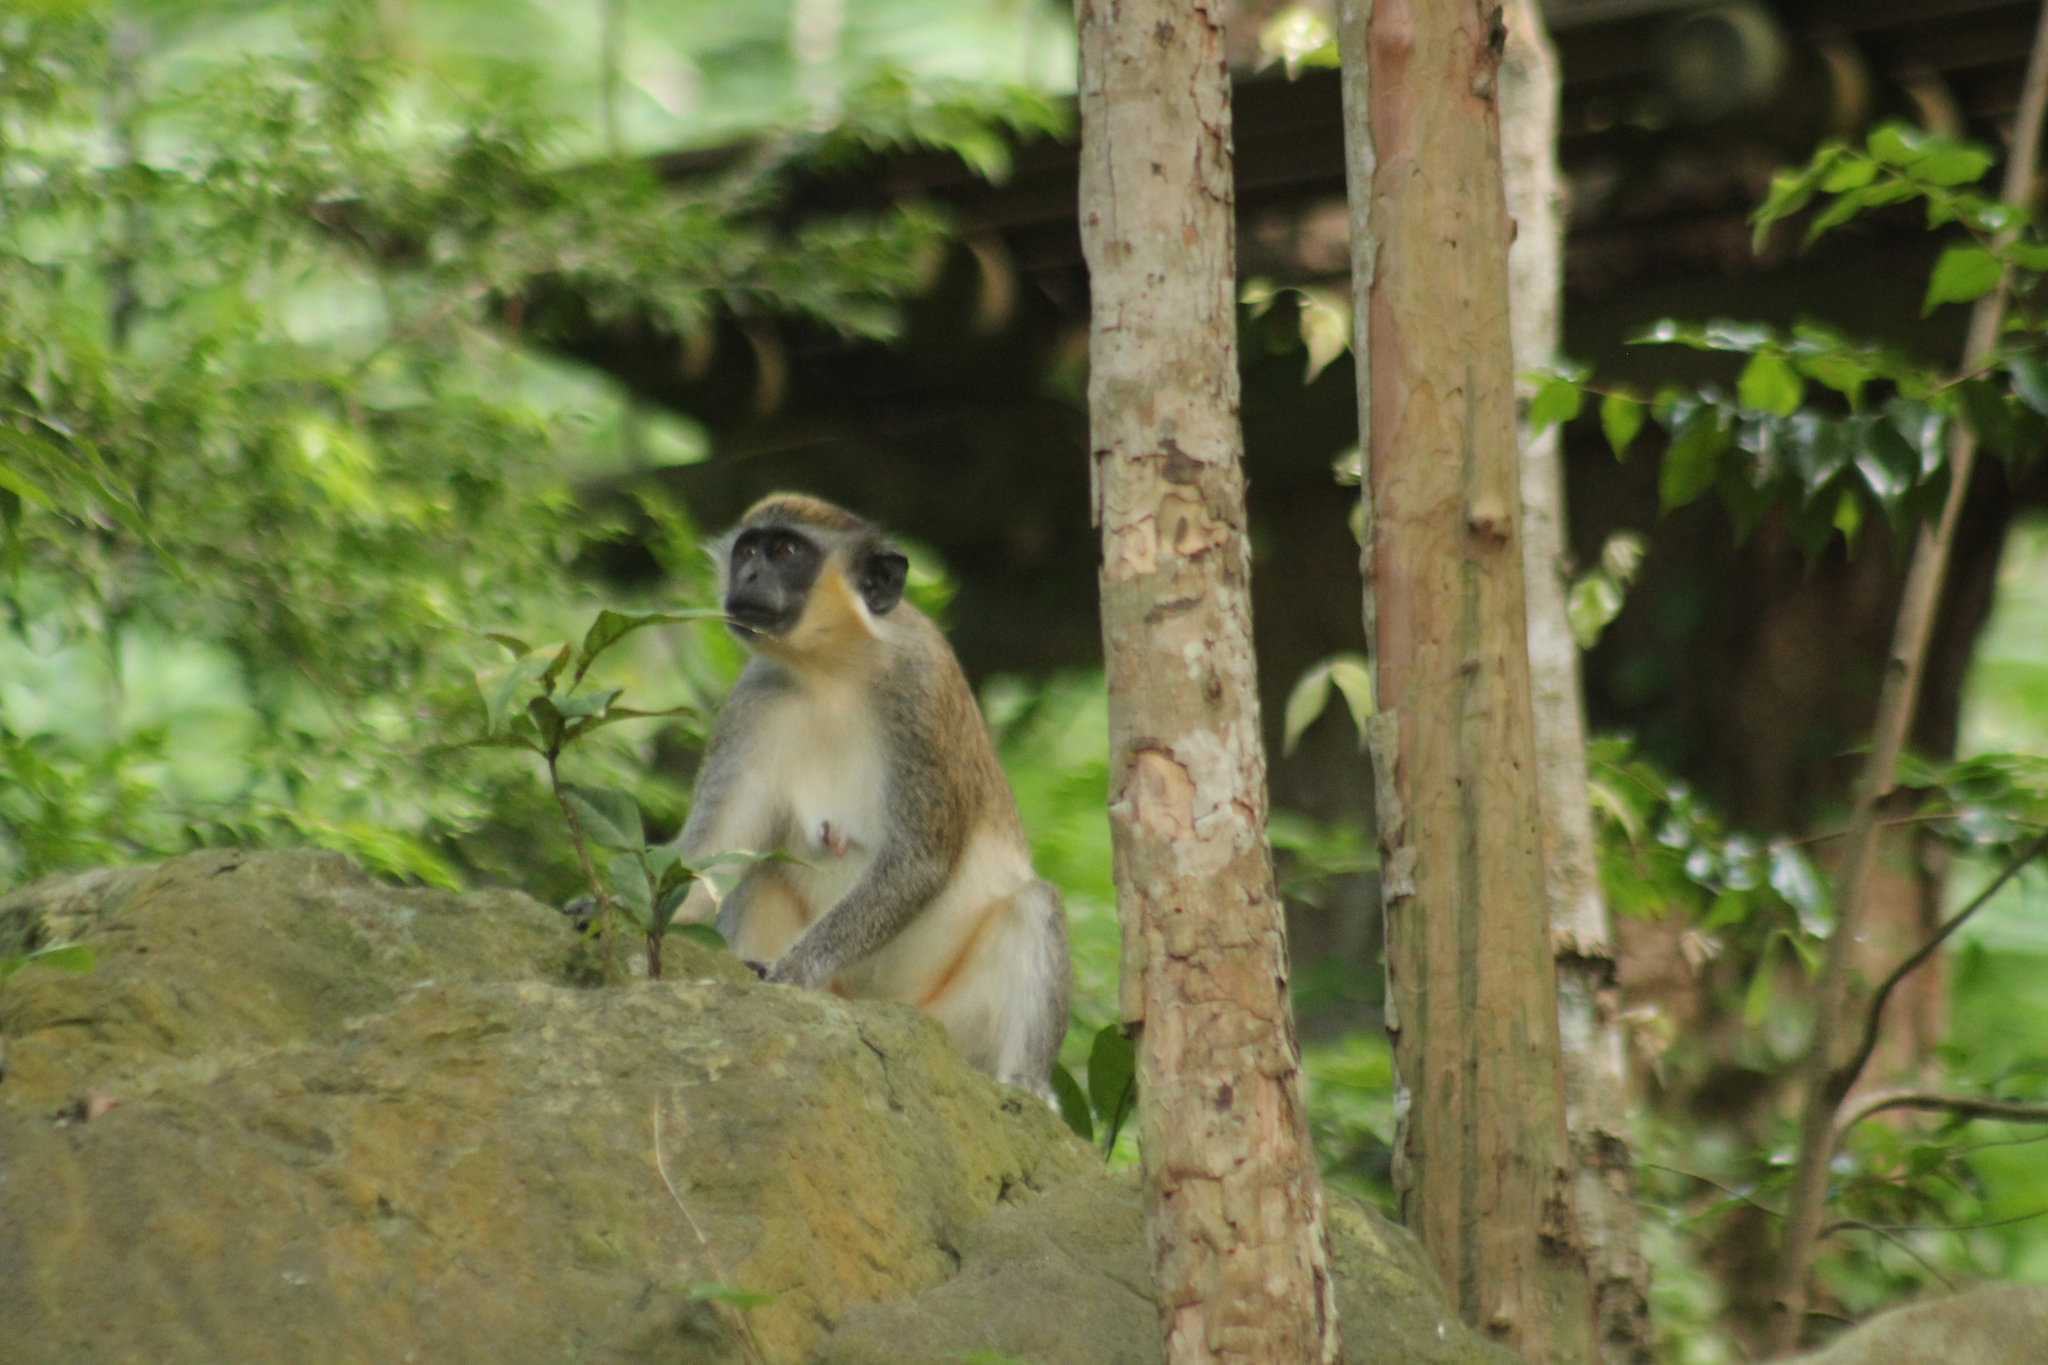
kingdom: Animalia
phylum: Chordata
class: Mammalia
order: Primates
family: Cercopithecidae
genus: Chlorocebus
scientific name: Chlorocebus sabaeus
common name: Green monkey
